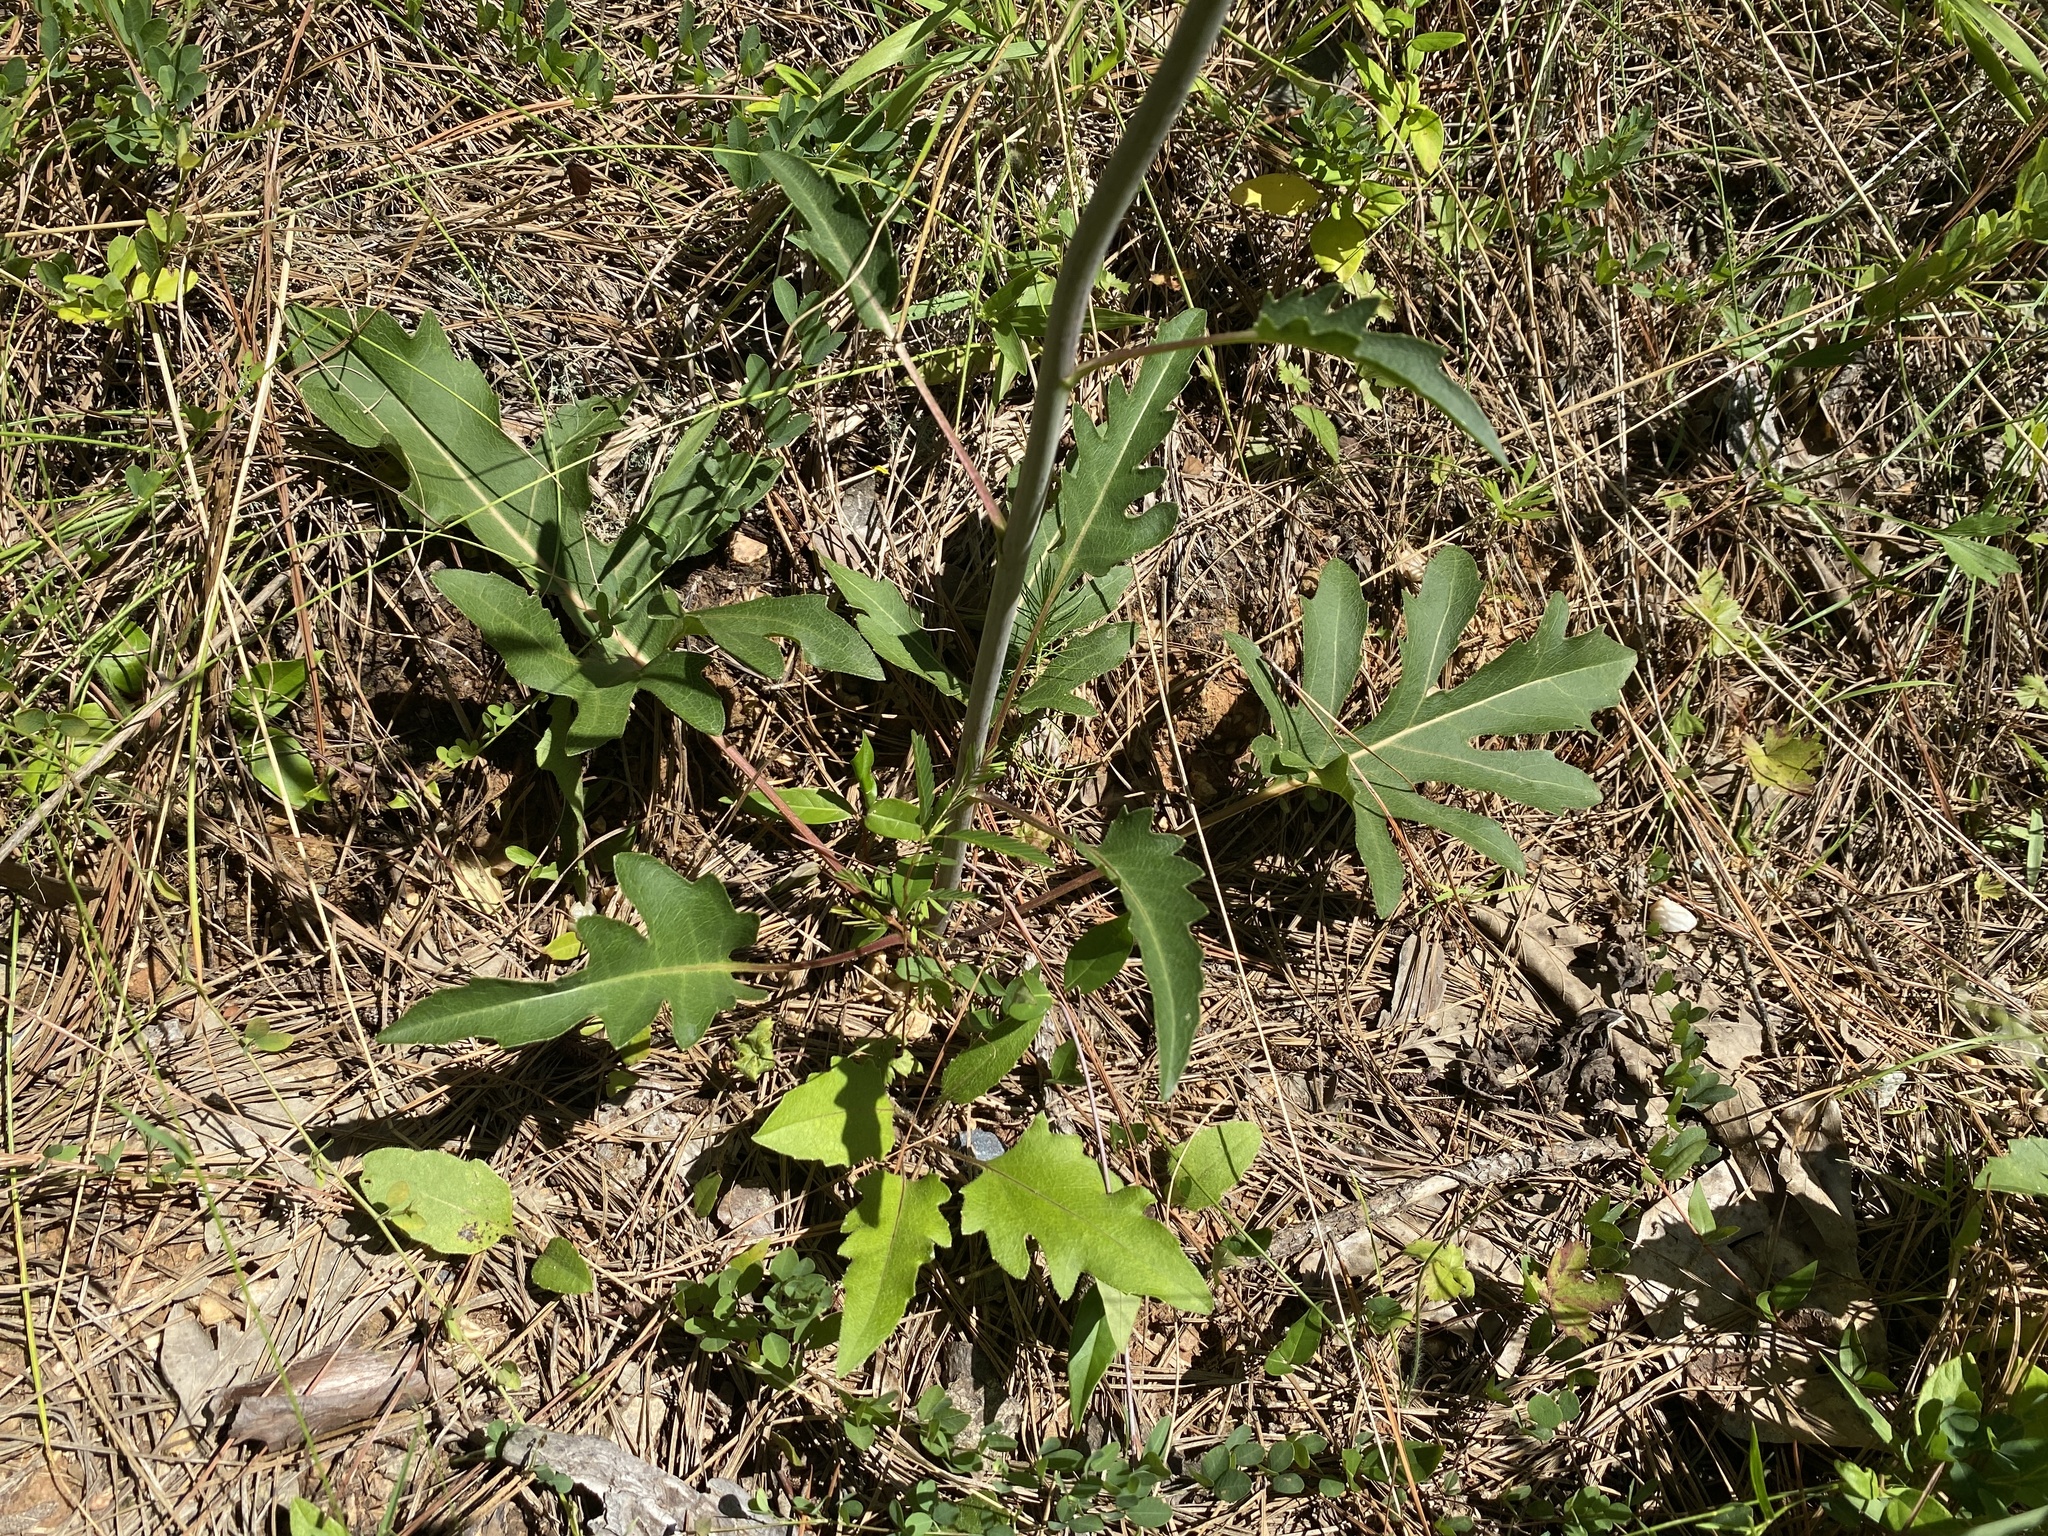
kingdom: Plantae
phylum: Tracheophyta
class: Magnoliopsida
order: Asterales
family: Asteraceae
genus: Silphium
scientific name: Silphium compositum
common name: Lesser basal-leaf rosinweed
